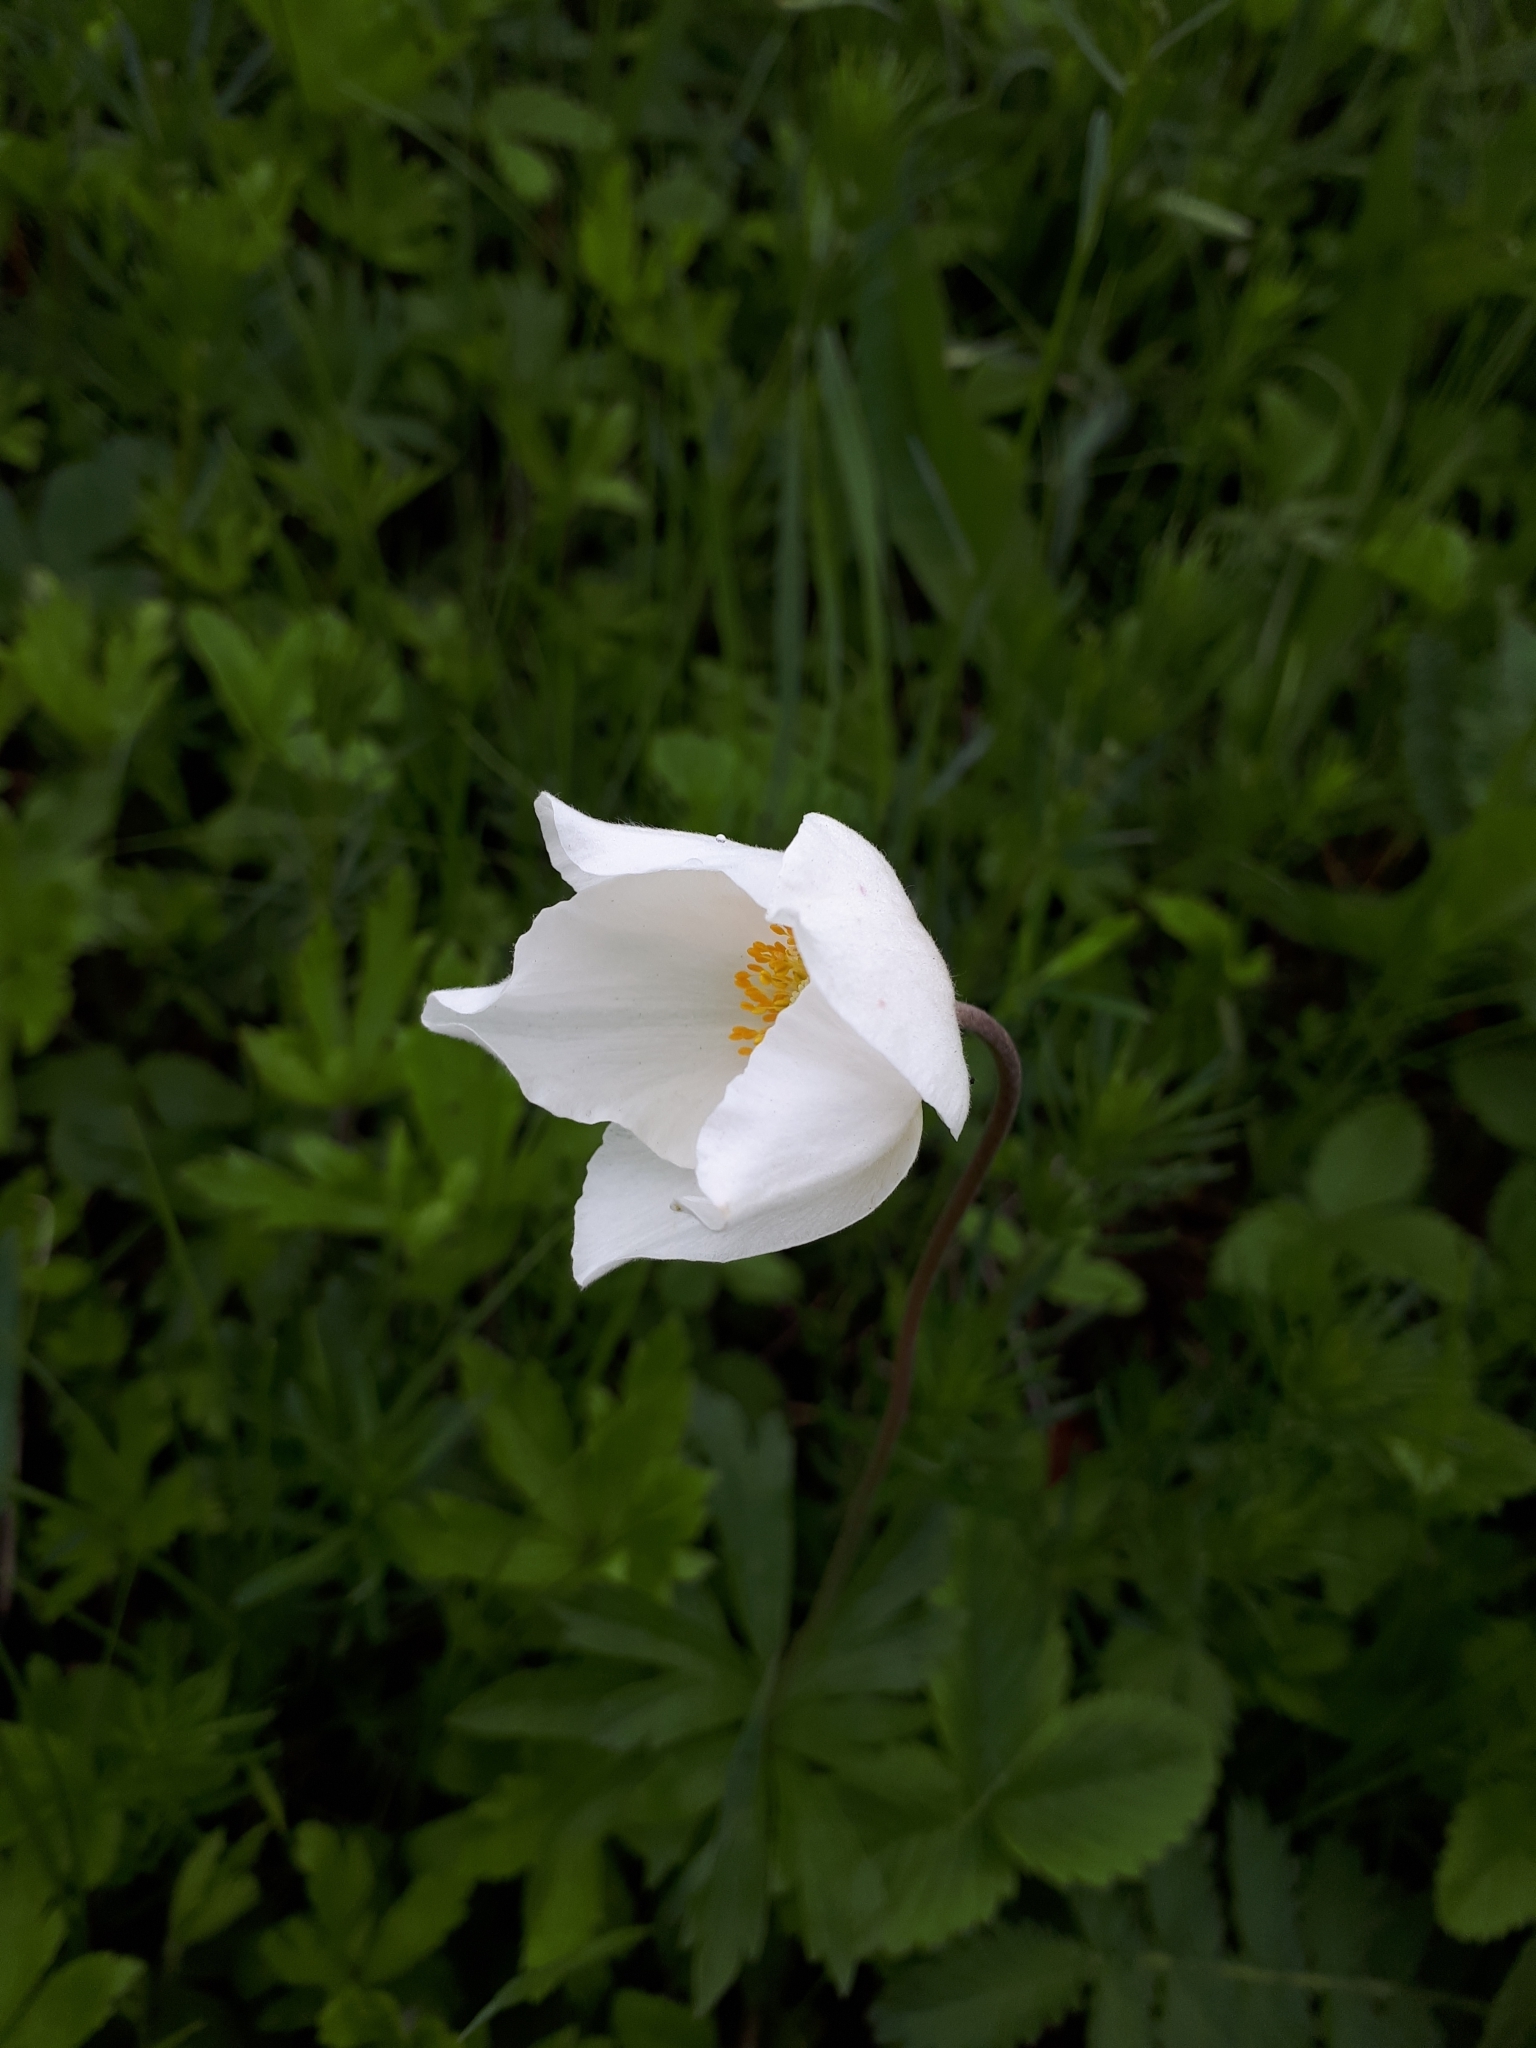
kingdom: Plantae
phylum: Tracheophyta
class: Magnoliopsida
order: Ranunculales
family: Ranunculaceae
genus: Anemone
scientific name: Anemone sylvestris
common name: Snowdrop anemone
